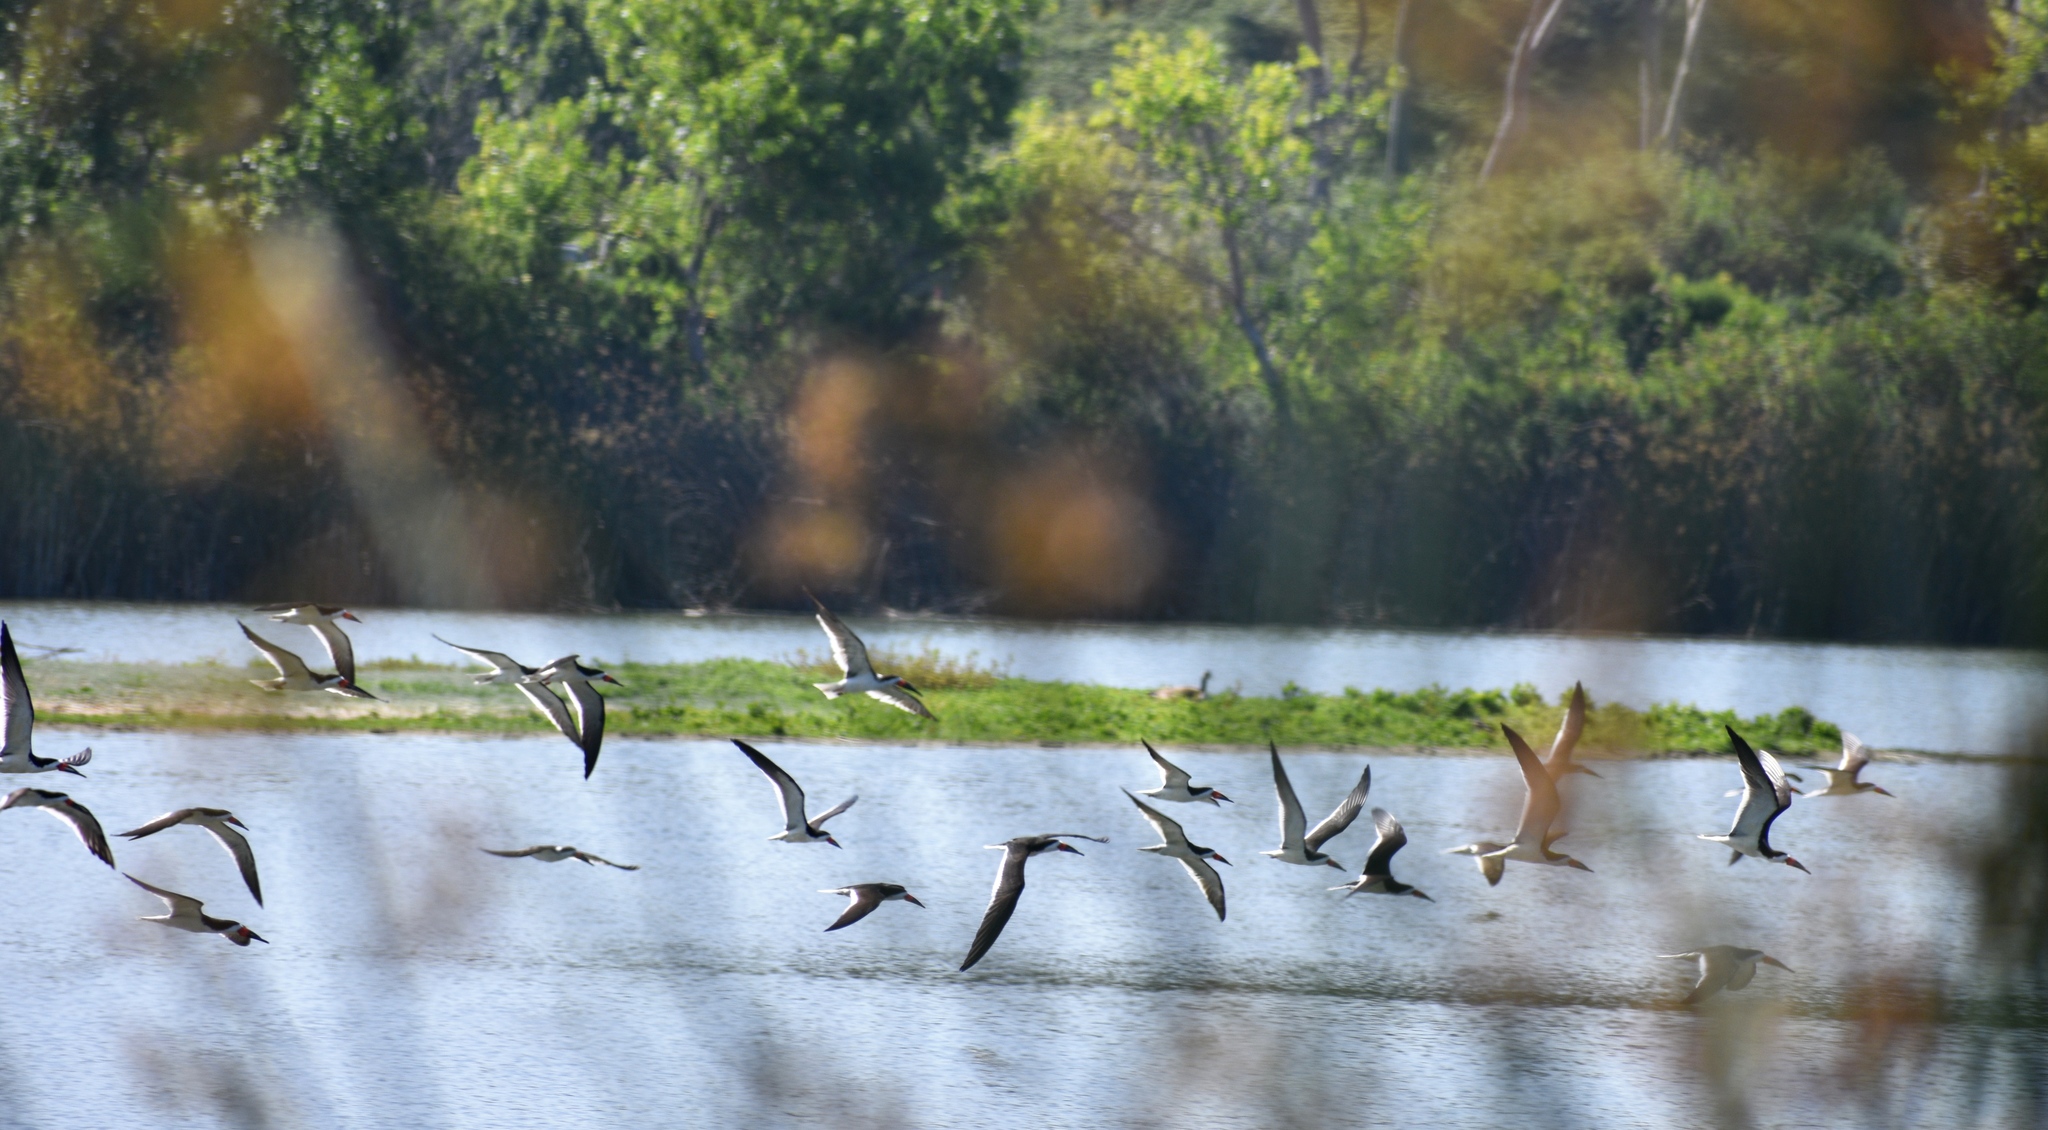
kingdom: Animalia
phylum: Chordata
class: Aves
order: Charadriiformes
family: Laridae
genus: Rynchops
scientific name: Rynchops niger
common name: Black skimmer
